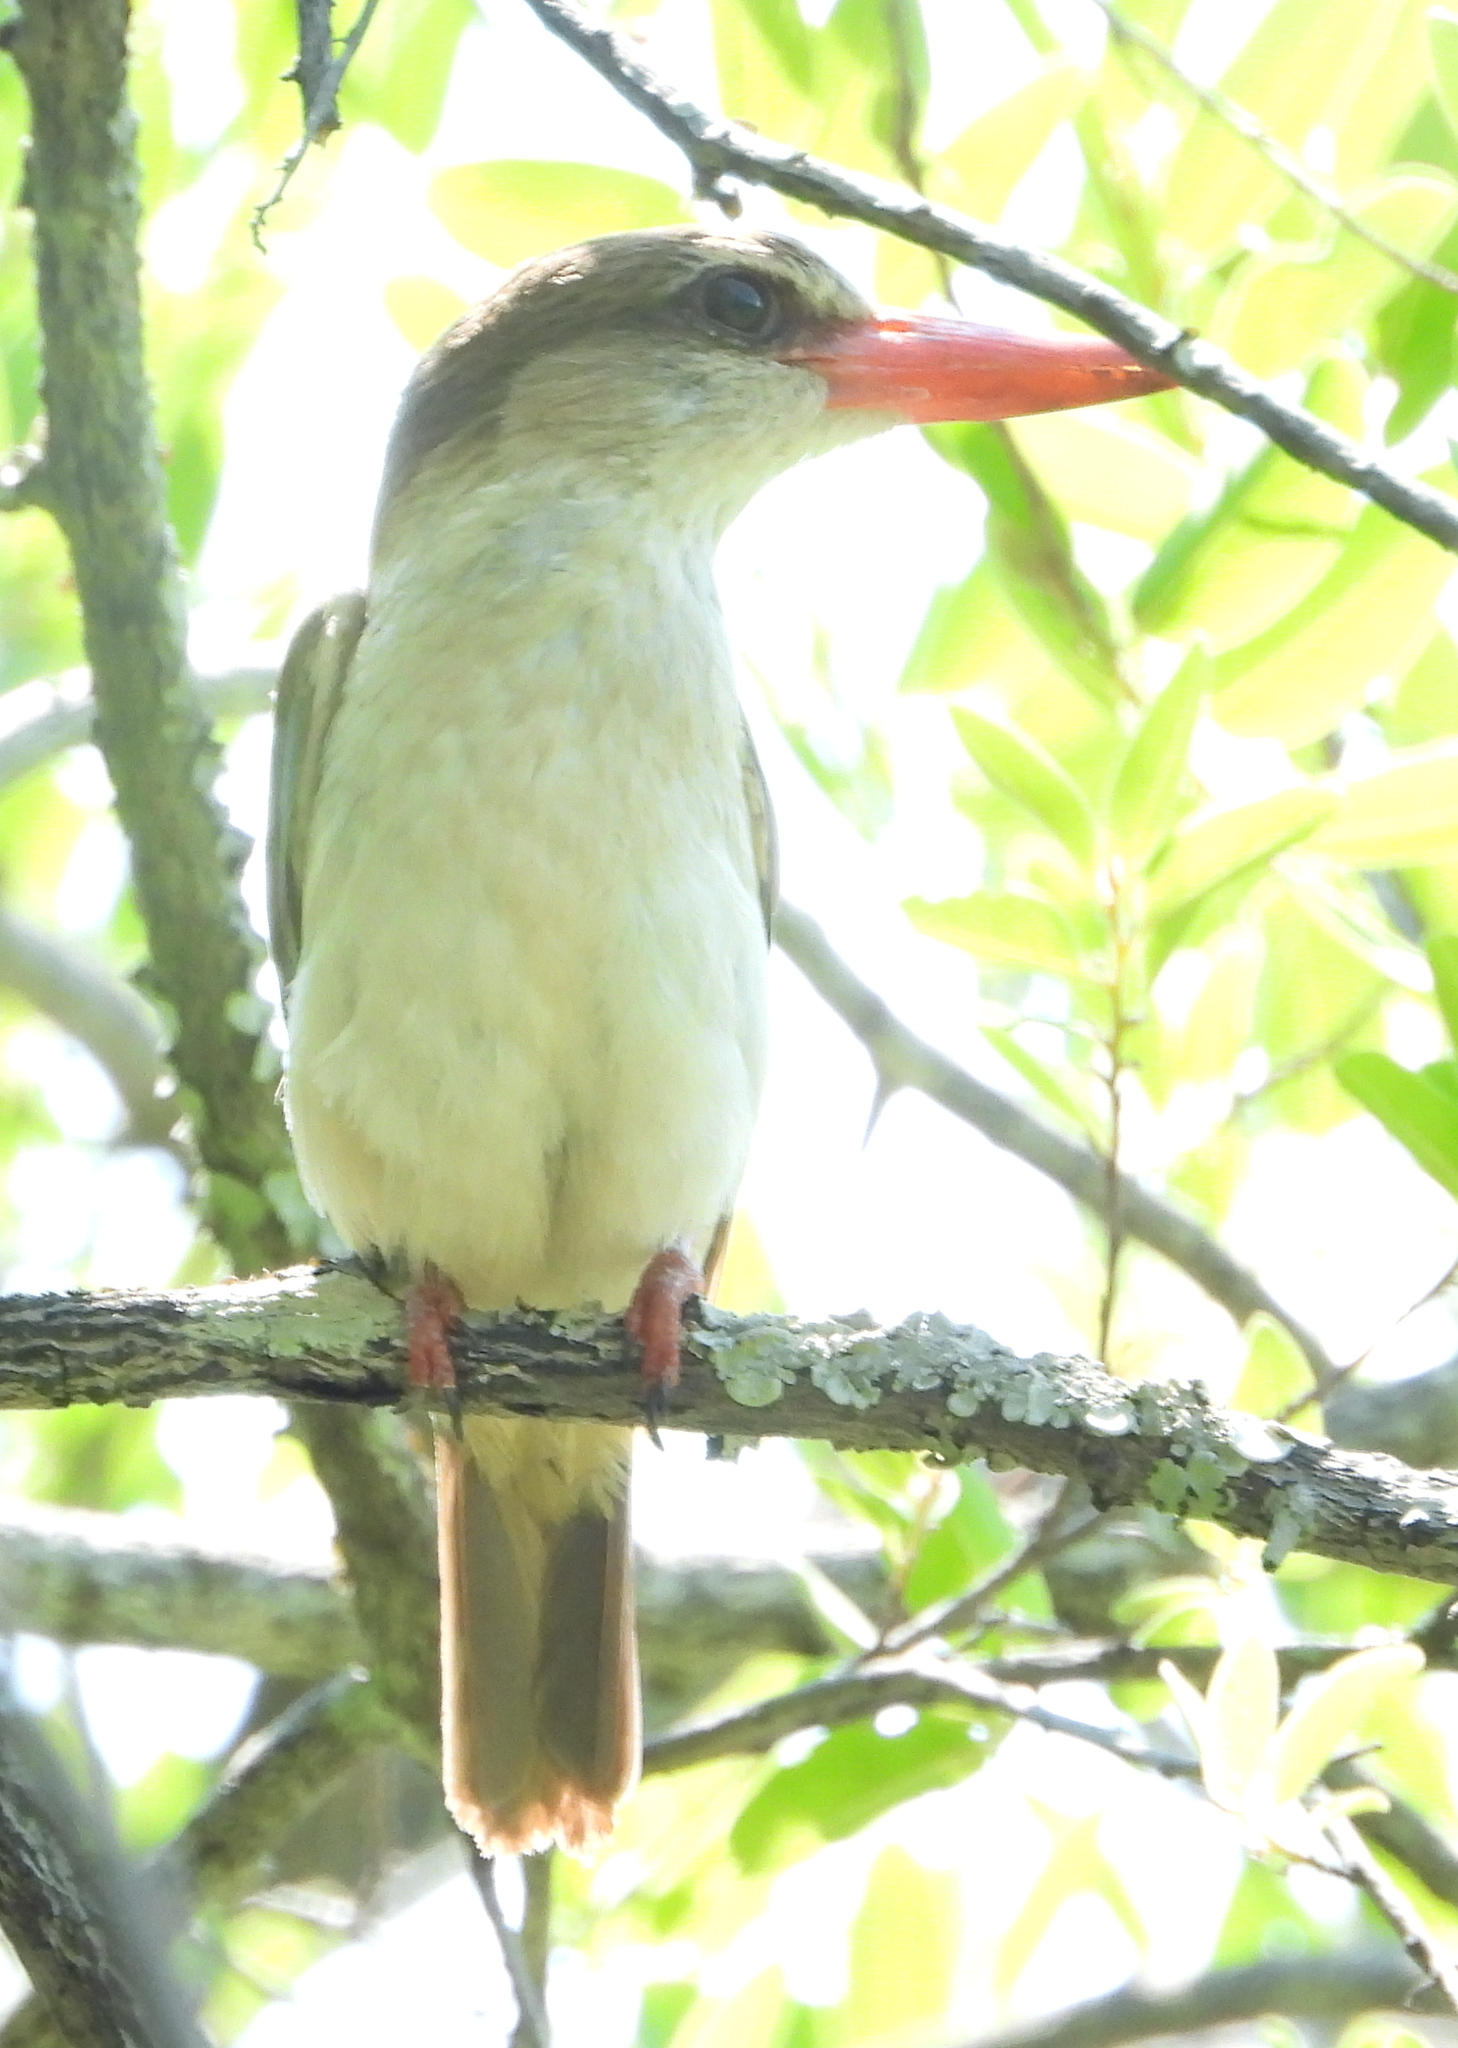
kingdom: Animalia
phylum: Chordata
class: Aves
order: Coraciiformes
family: Alcedinidae
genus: Halcyon
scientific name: Halcyon albiventris
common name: Brown-hooded kingfisher
